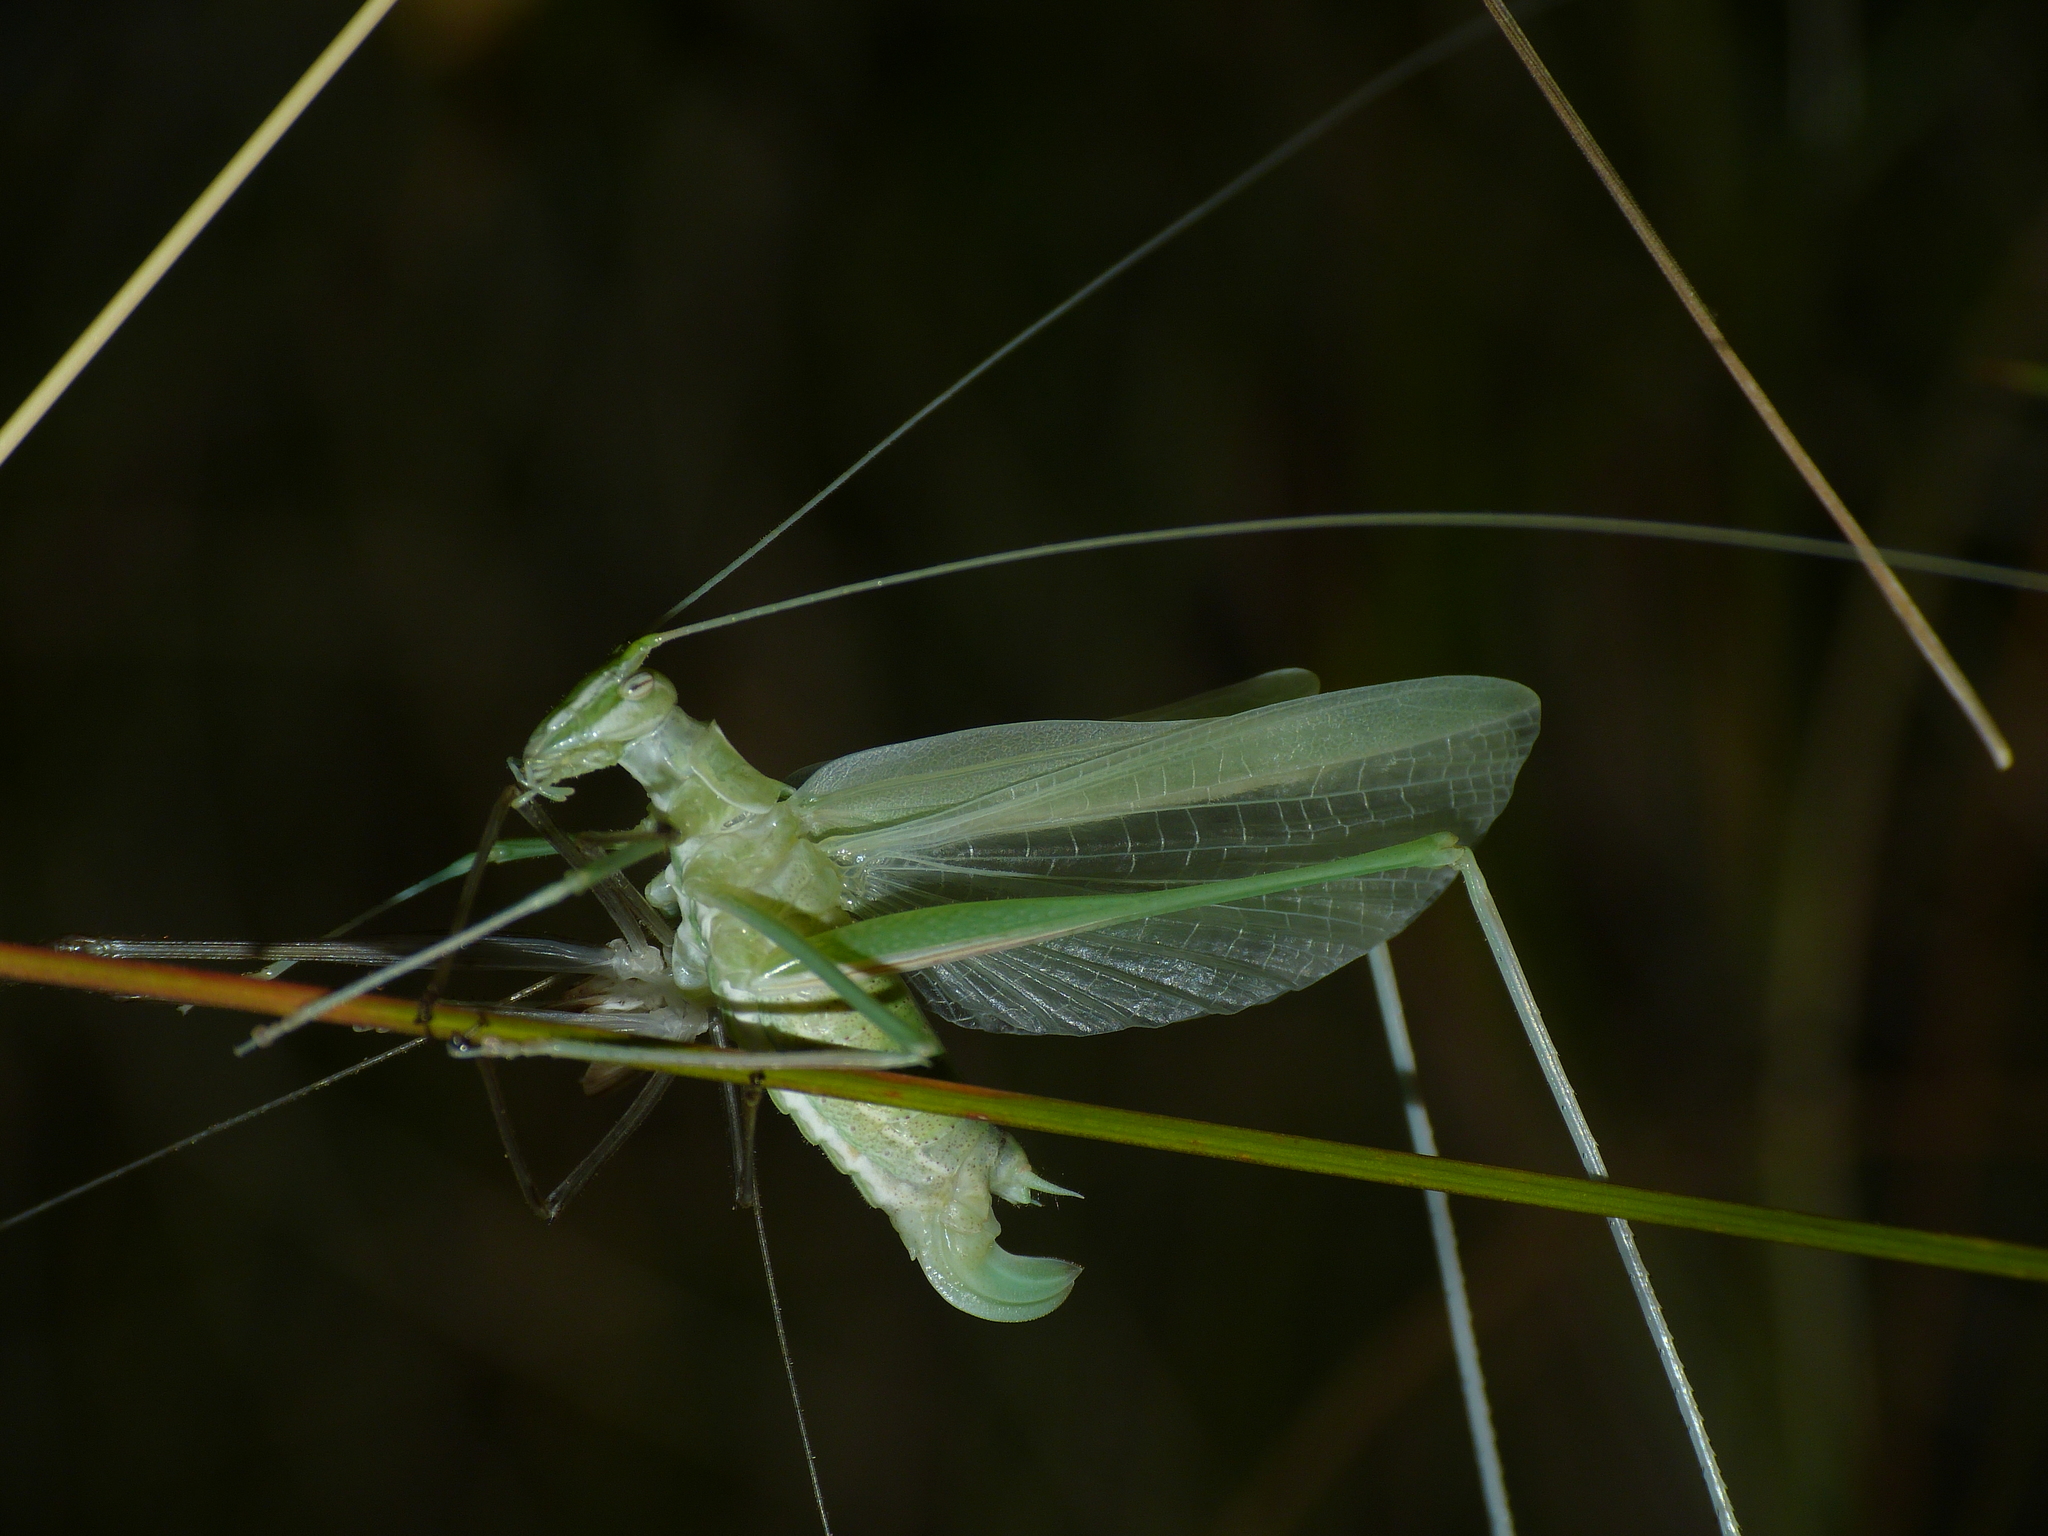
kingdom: Animalia
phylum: Arthropoda
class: Insecta
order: Orthoptera
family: Tettigoniidae
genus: Tylopsis
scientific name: Tylopsis lilifolia
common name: Lily bush-cricket
